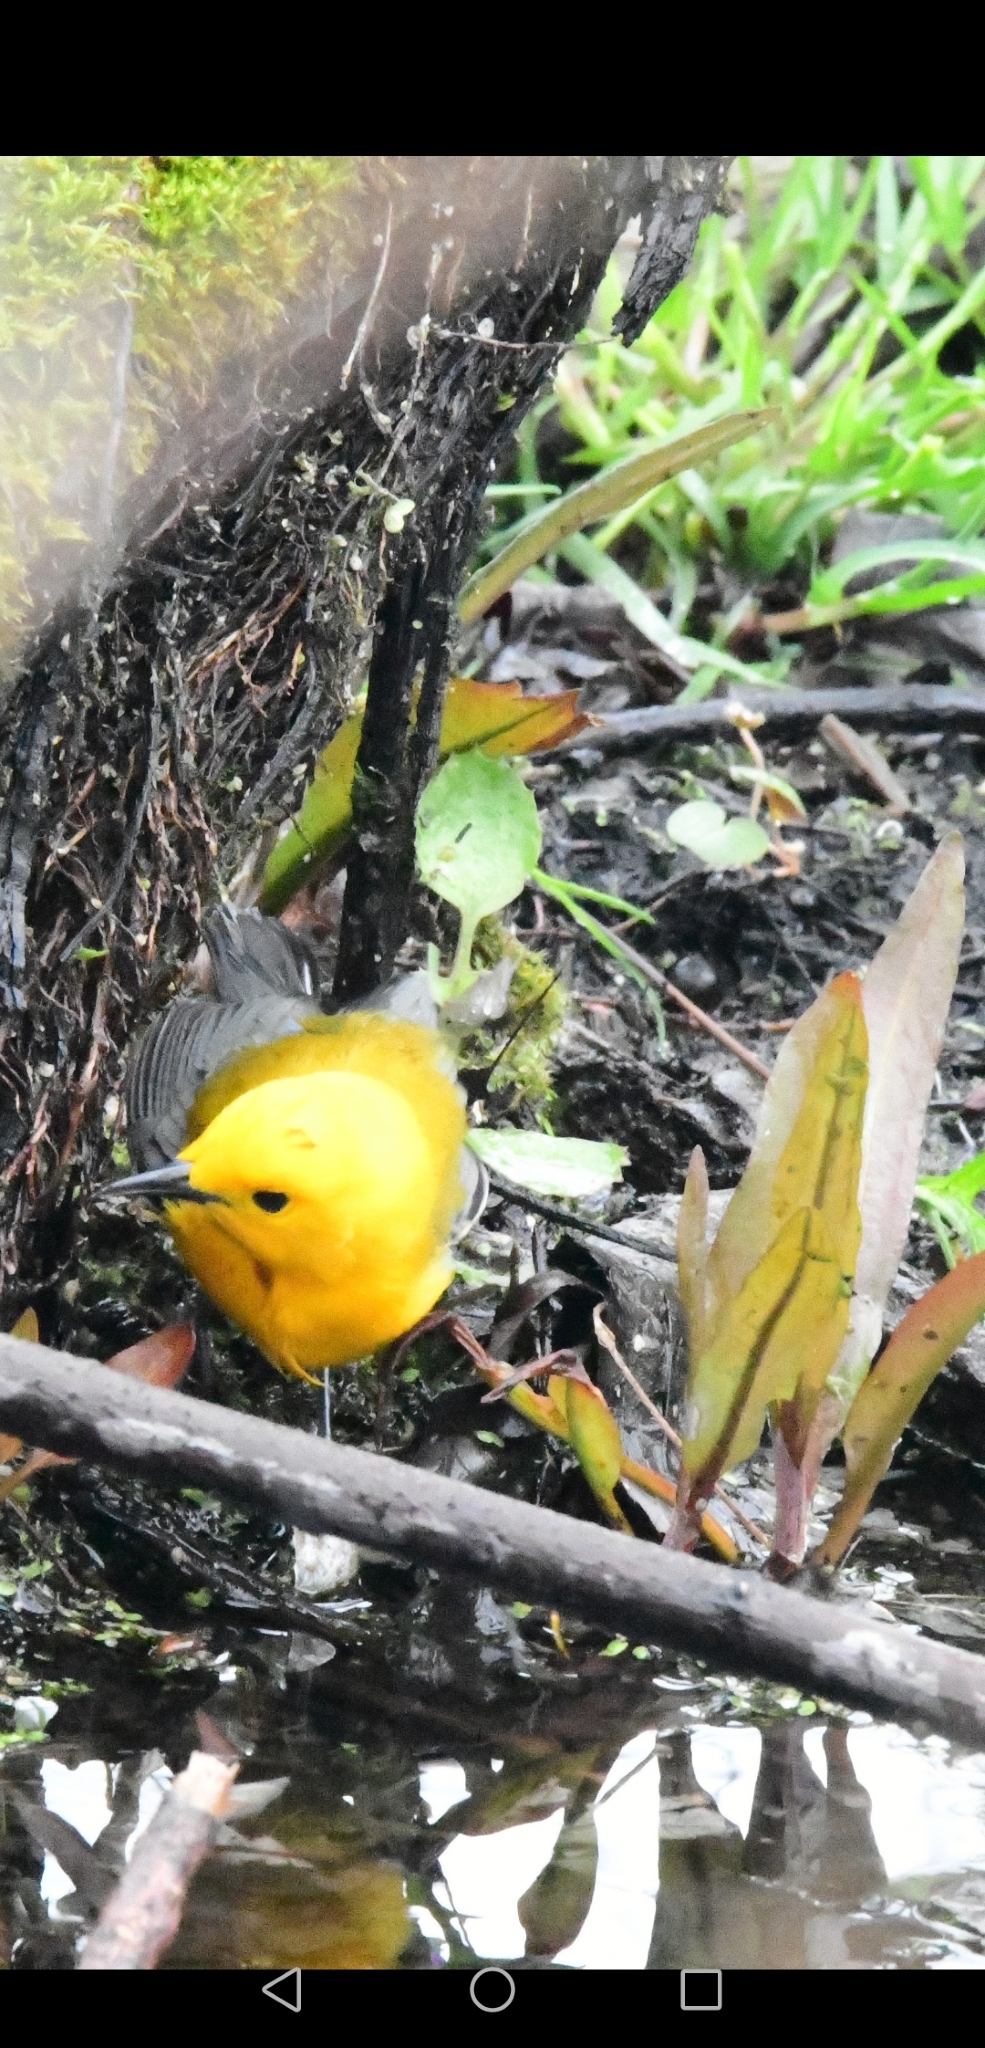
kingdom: Animalia
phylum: Chordata
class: Aves
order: Passeriformes
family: Parulidae
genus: Protonotaria
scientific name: Protonotaria citrea
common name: Prothonotary warbler
